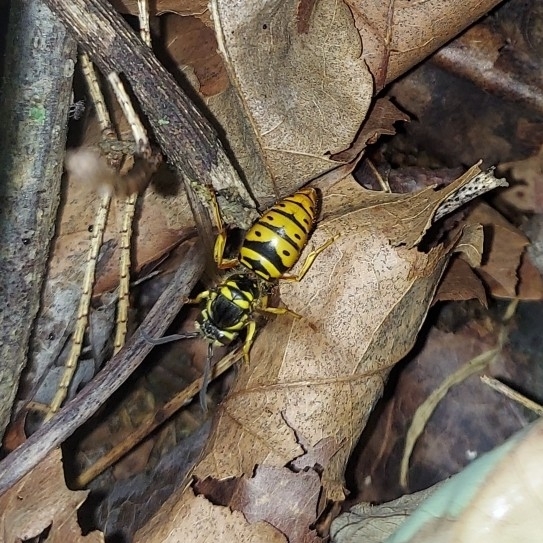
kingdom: Animalia
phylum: Arthropoda
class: Insecta
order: Hymenoptera
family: Vespidae
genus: Vespula
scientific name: Vespula maculifrons
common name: Eastern yellowjacket
